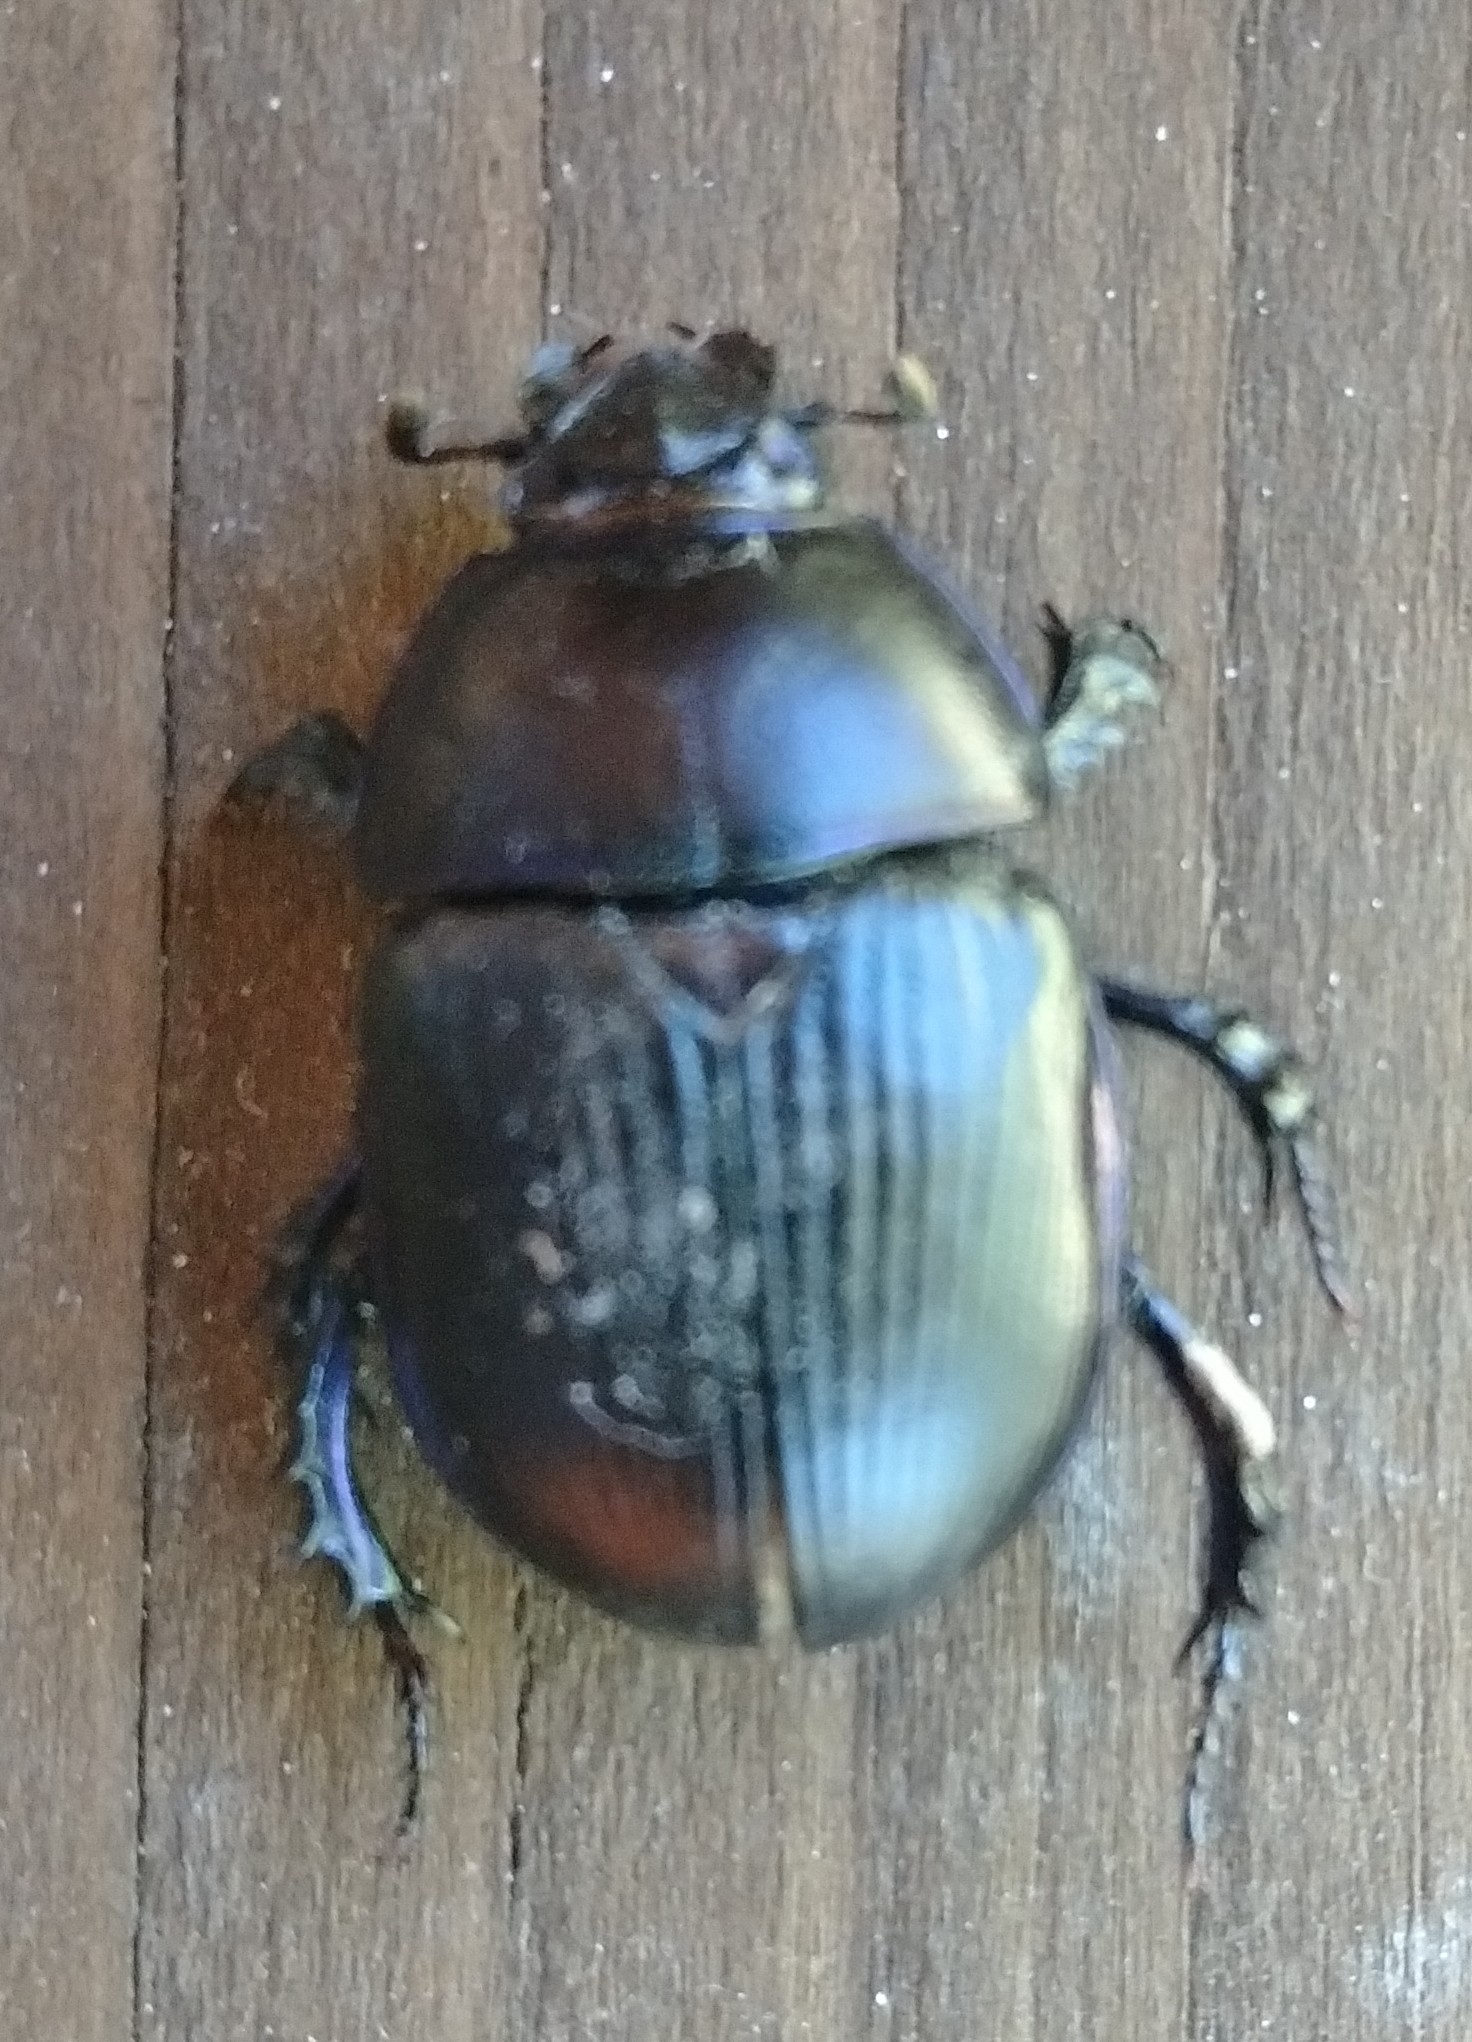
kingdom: Animalia
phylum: Arthropoda
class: Insecta
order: Coleoptera
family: Geotrupidae
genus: Anoplotrupes
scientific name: Anoplotrupes stercorosus
